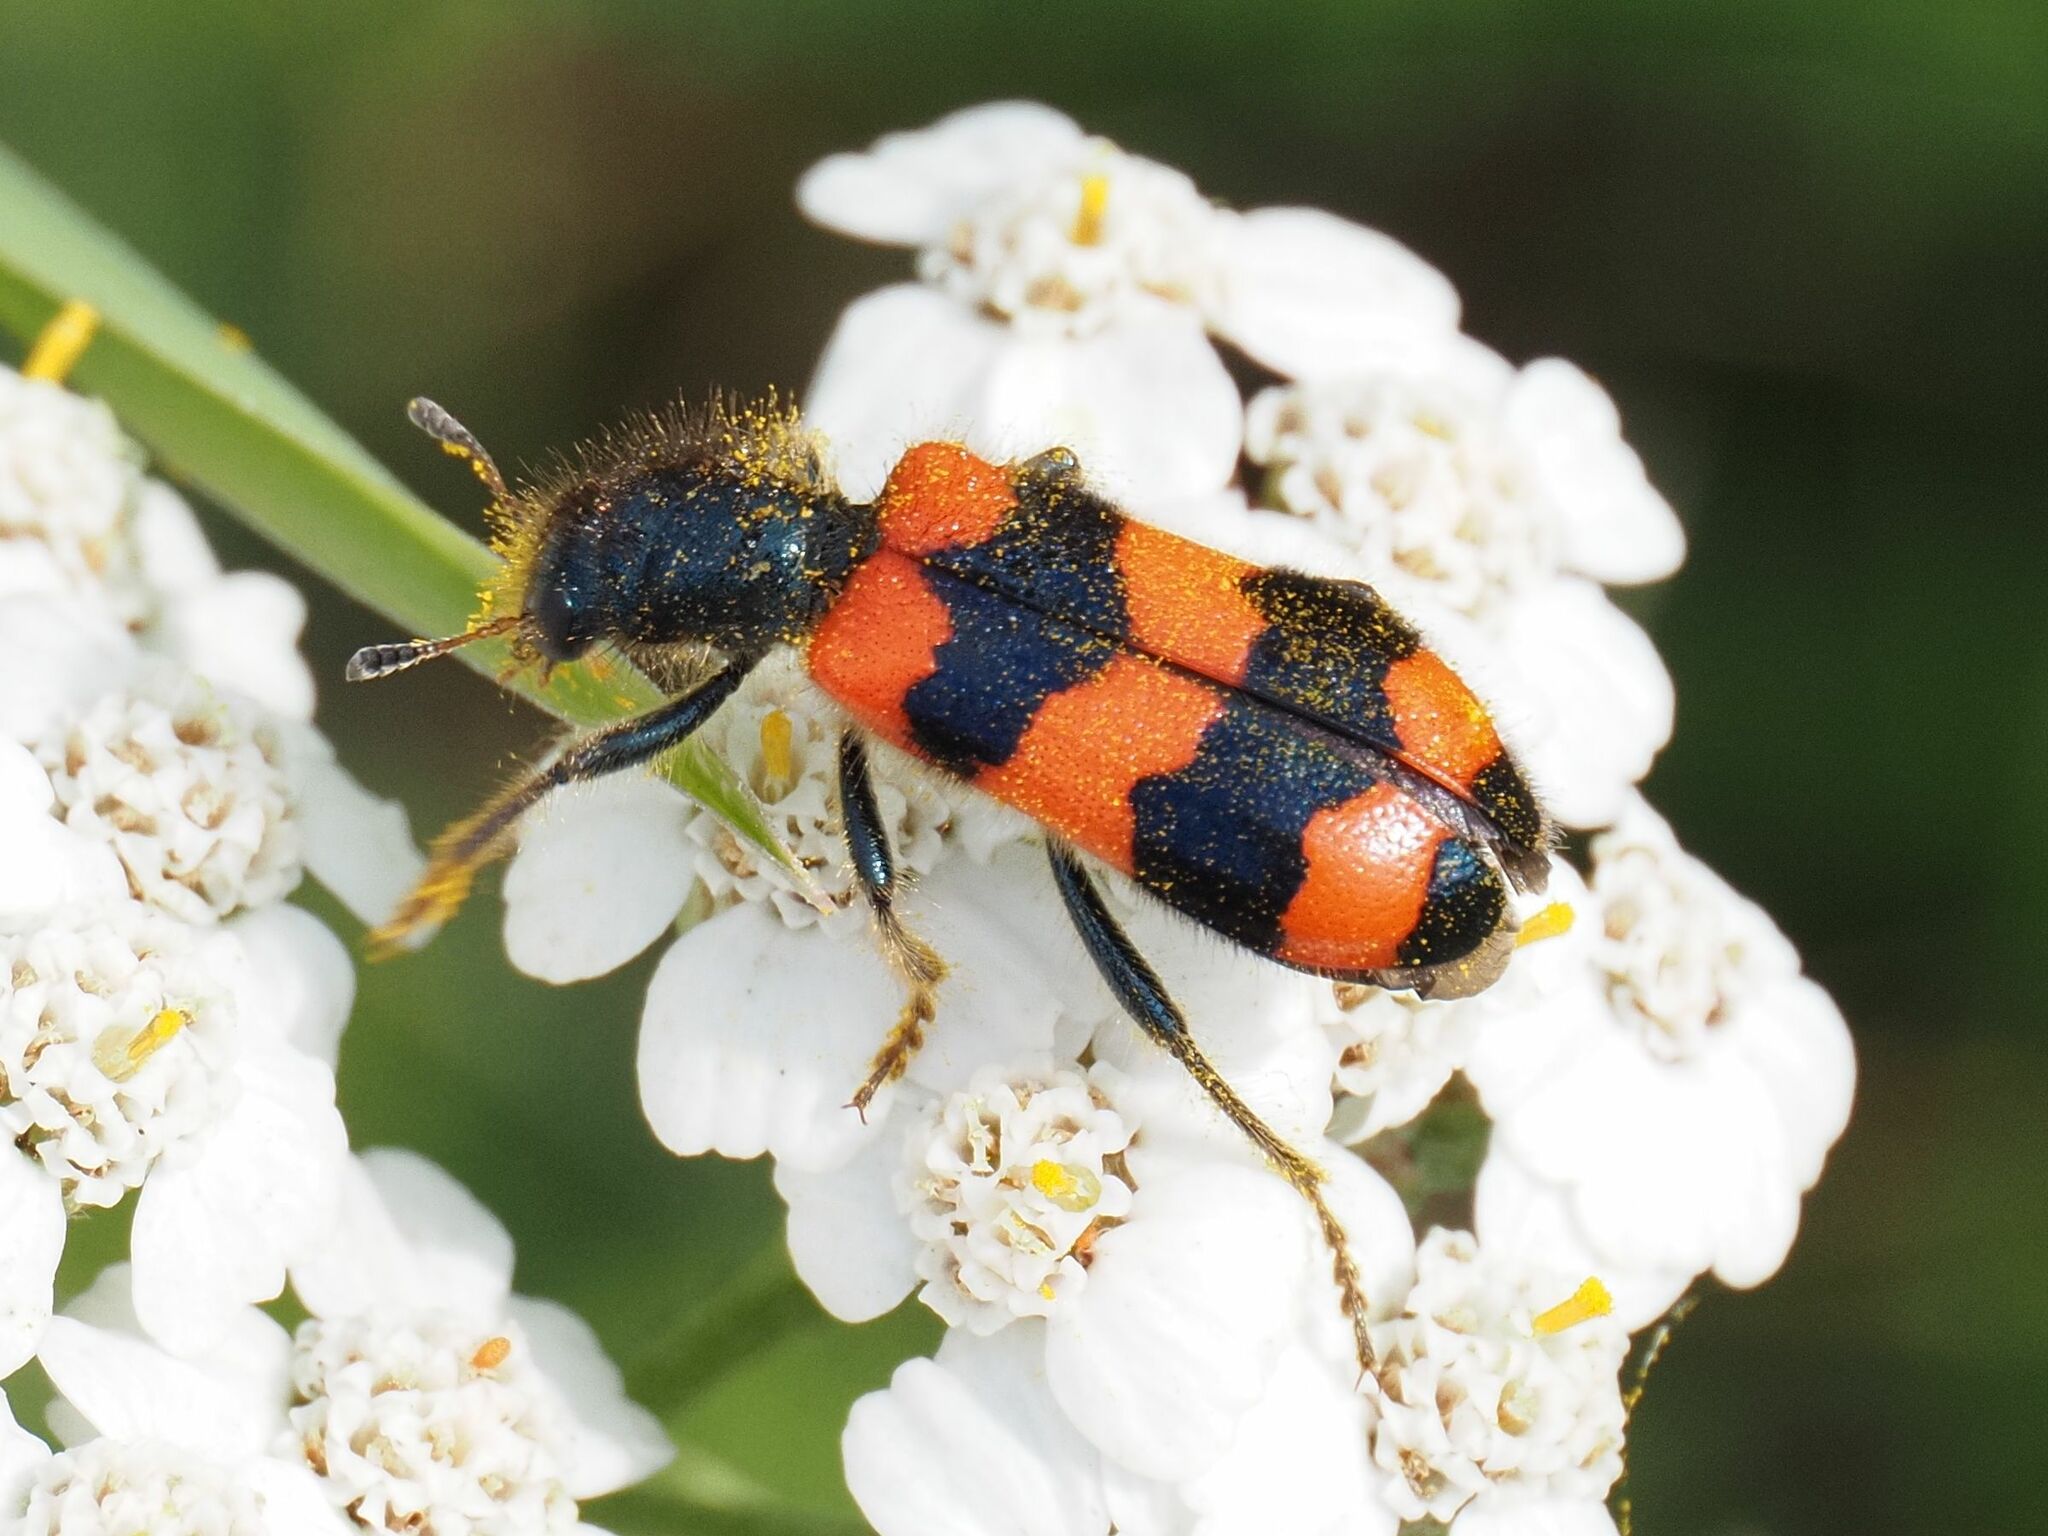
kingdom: Animalia
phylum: Arthropoda
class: Insecta
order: Coleoptera
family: Cleridae
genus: Trichodes
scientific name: Trichodes apiarius
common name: Bee-eating beetle
